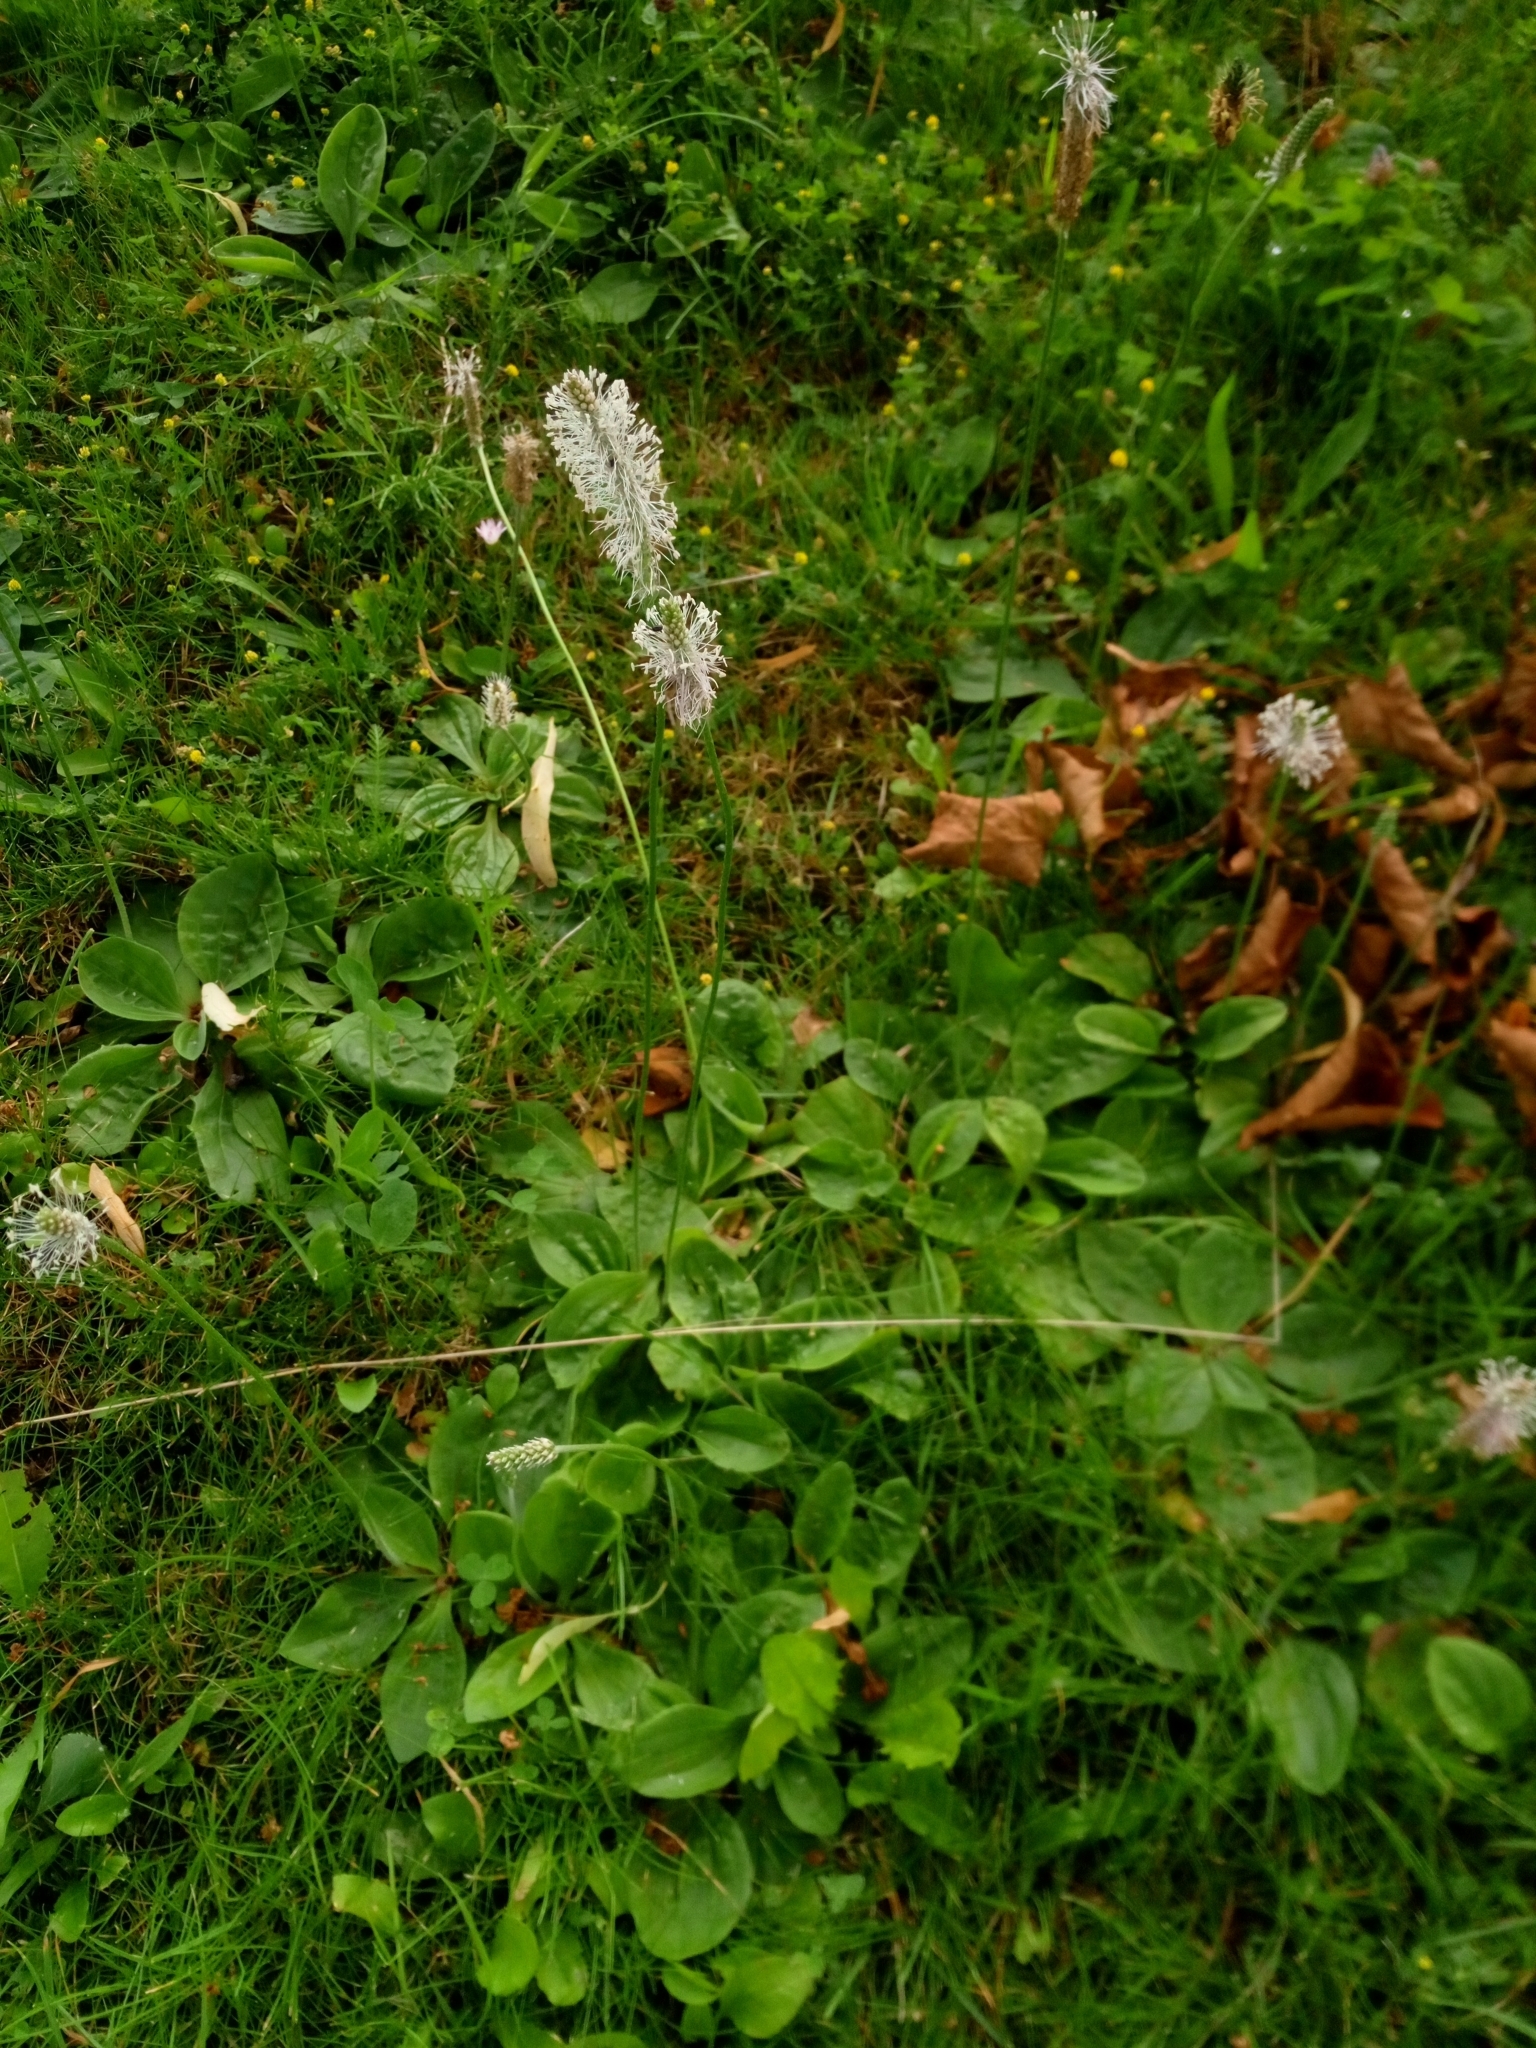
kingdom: Plantae
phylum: Tracheophyta
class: Magnoliopsida
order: Lamiales
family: Plantaginaceae
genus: Plantago
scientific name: Plantago media
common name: Hoary plantain
